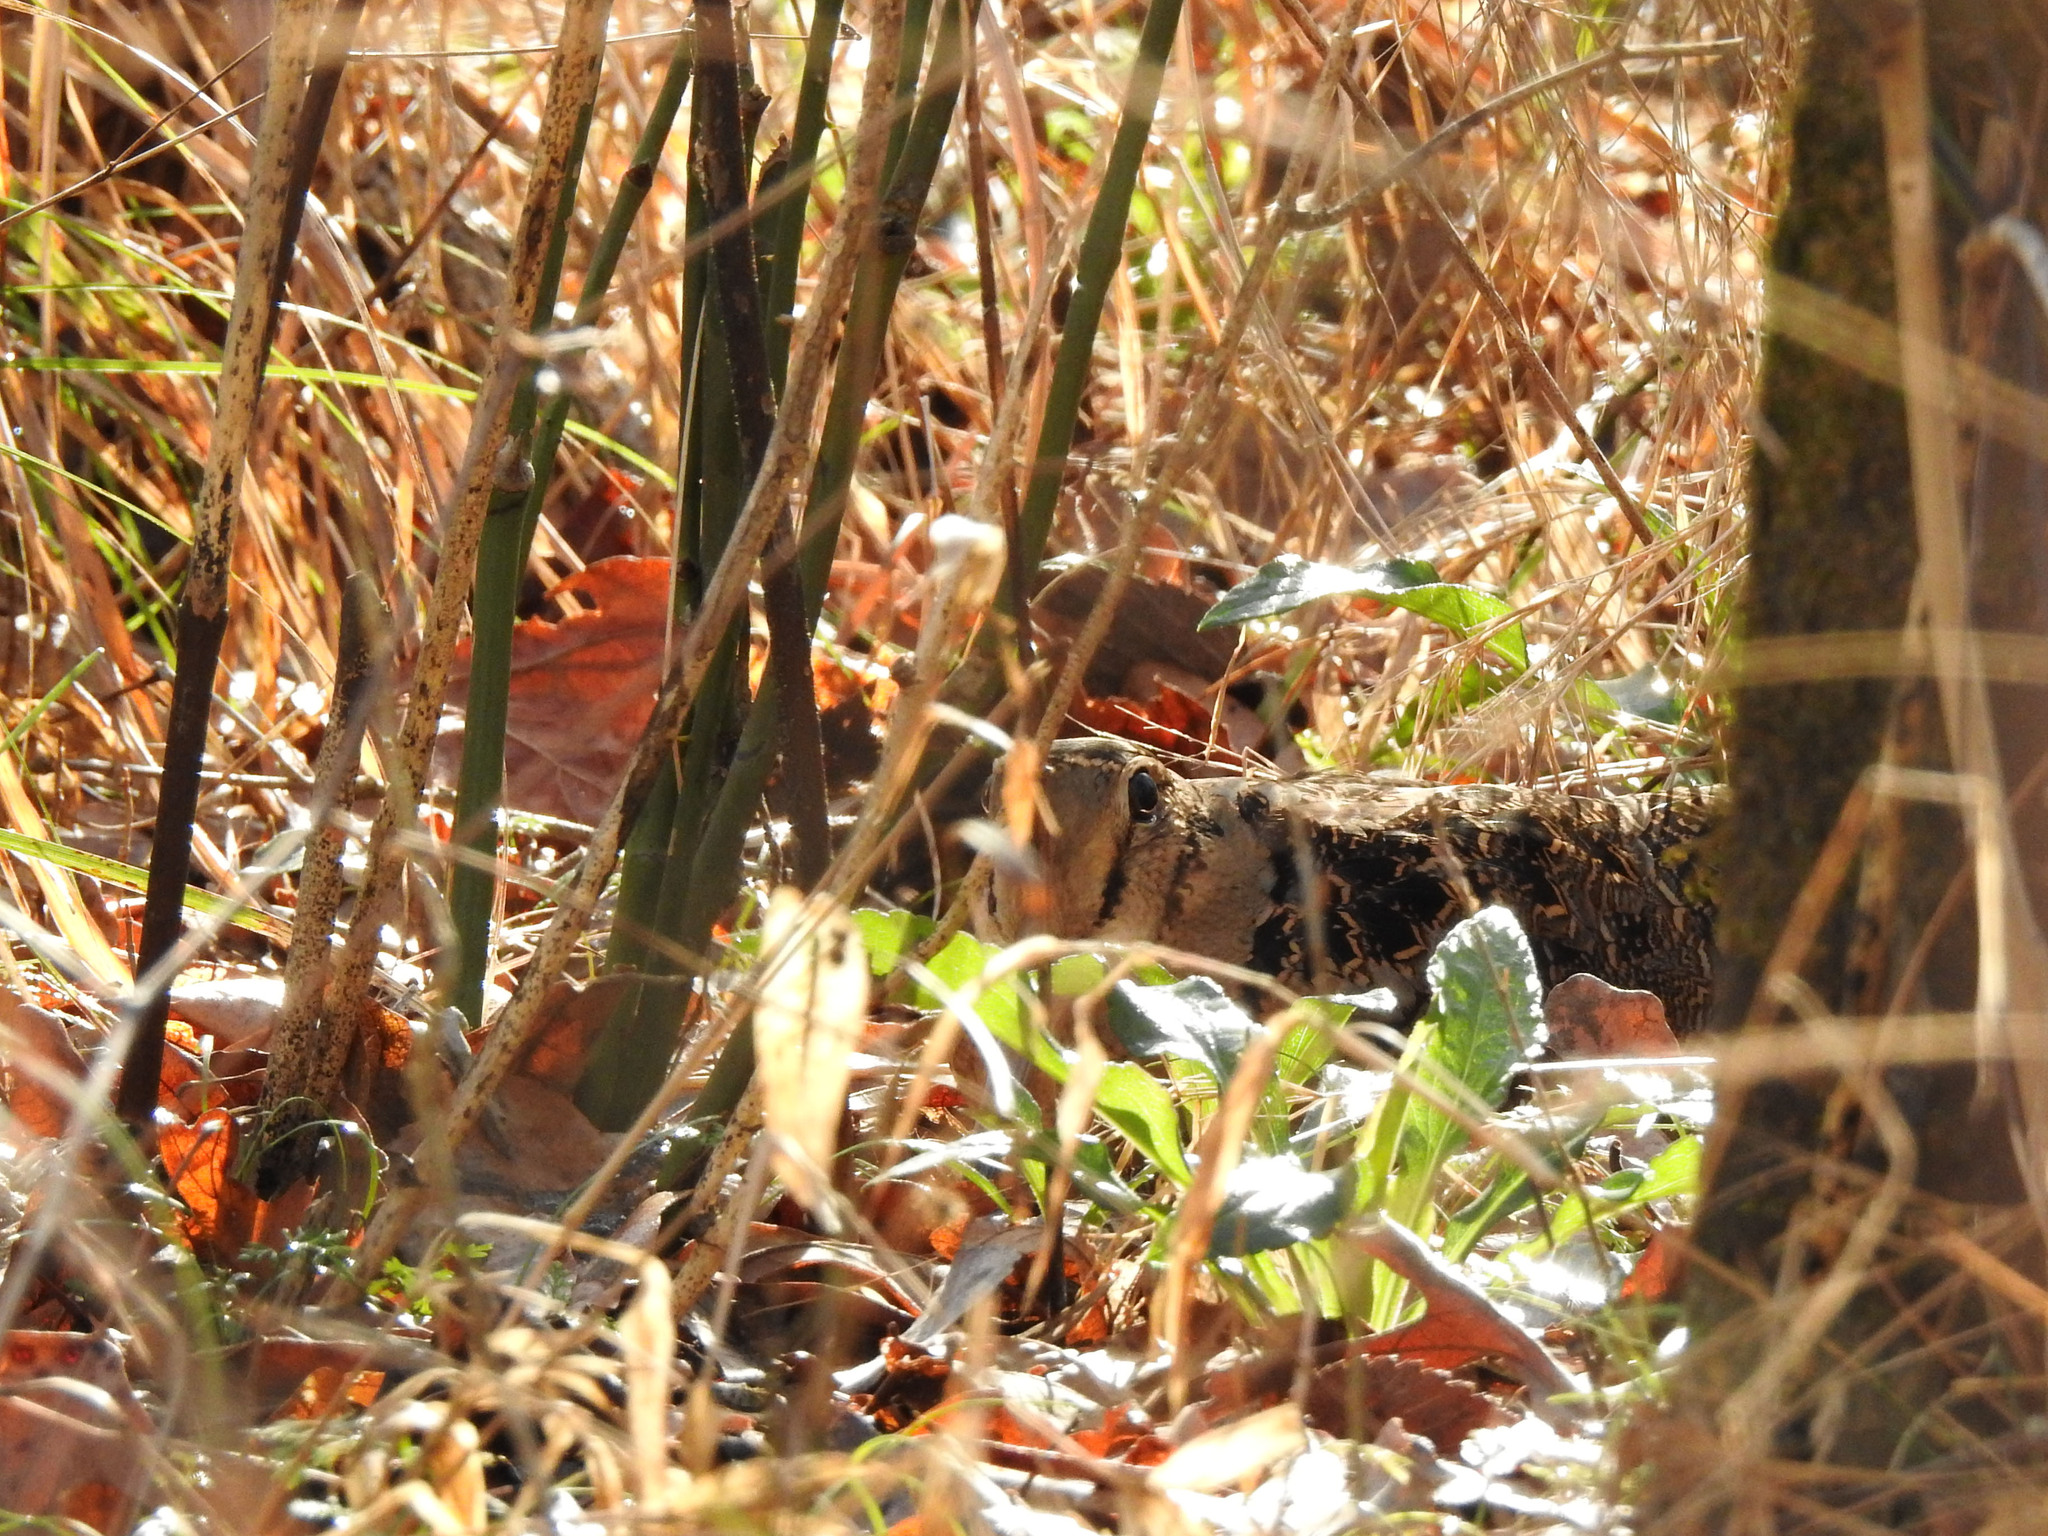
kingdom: Animalia
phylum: Chordata
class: Aves
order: Charadriiformes
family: Scolopacidae
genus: Scolopax
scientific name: Scolopax minor
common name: American woodcock
